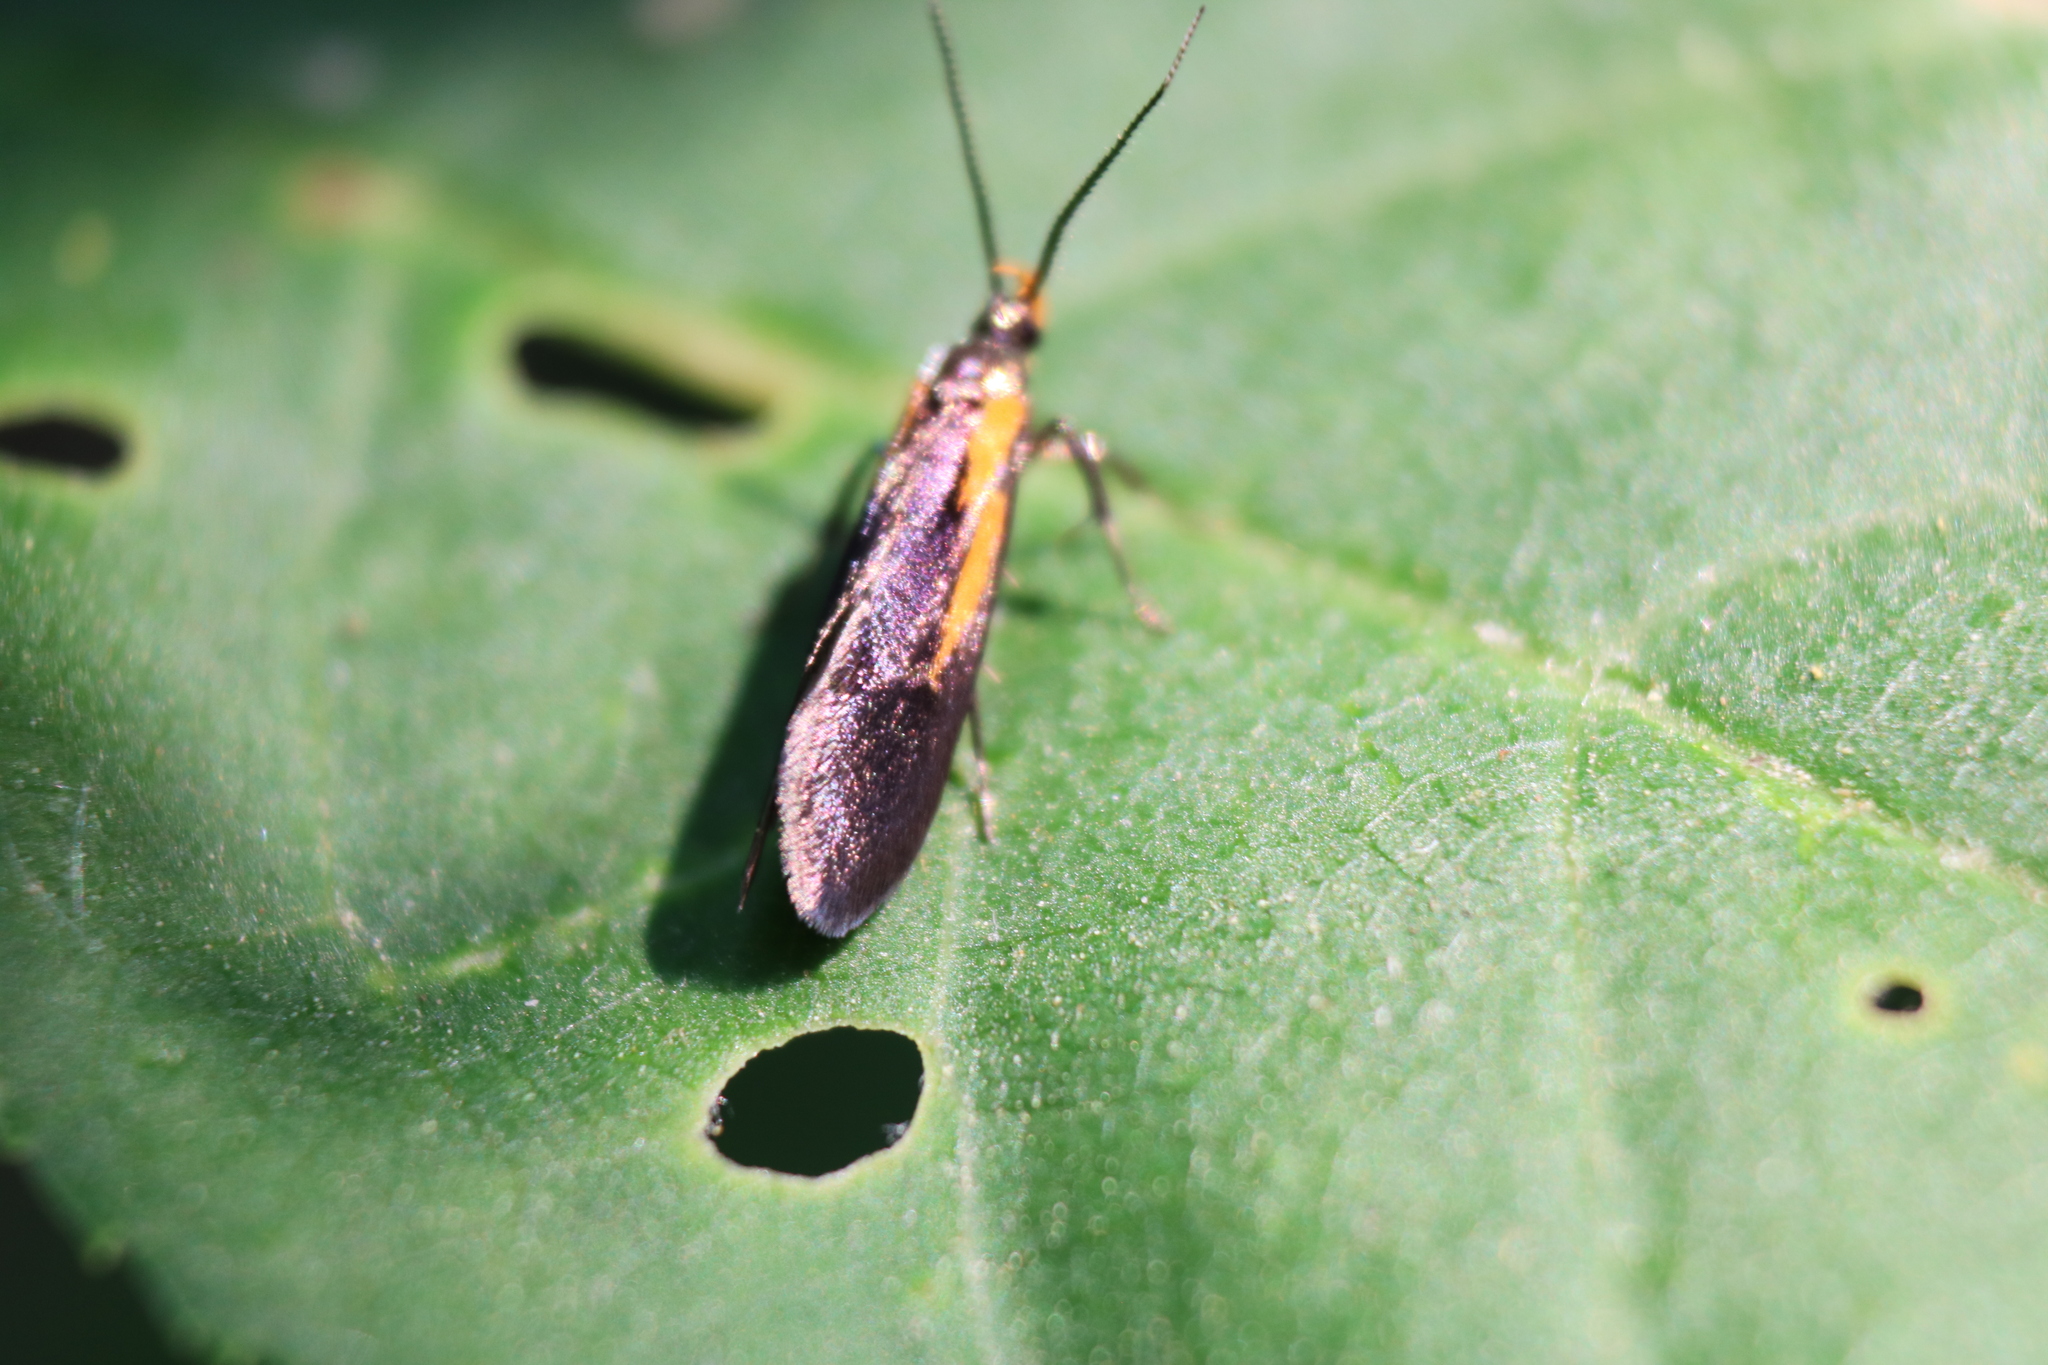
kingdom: Animalia
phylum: Arthropoda
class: Insecta
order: Lepidoptera
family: Oecophoridae
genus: Mathildana
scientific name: Mathildana newmanella
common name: Newman's mathildana moth
